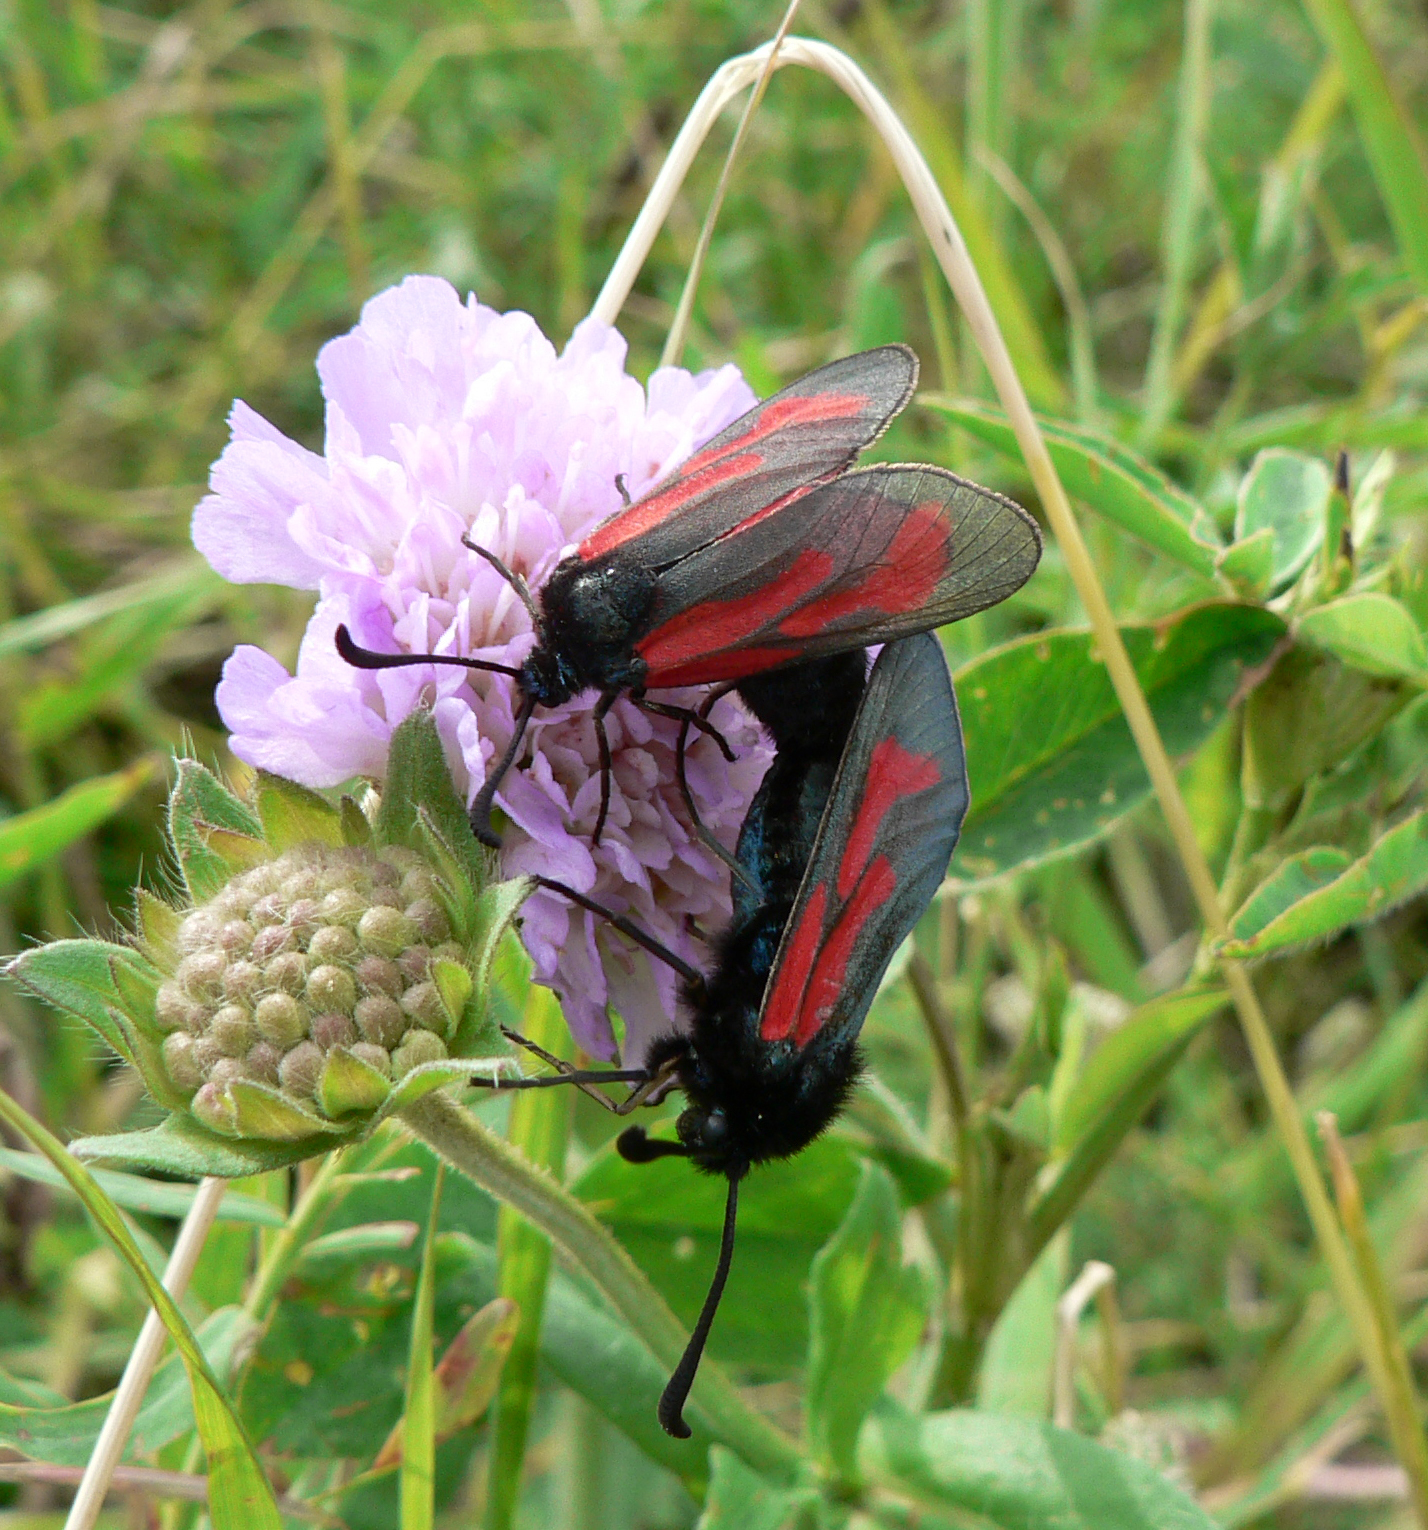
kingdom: Animalia
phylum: Arthropoda
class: Insecta
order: Lepidoptera
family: Zygaenidae
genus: Zygaena
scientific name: Zygaena minos
